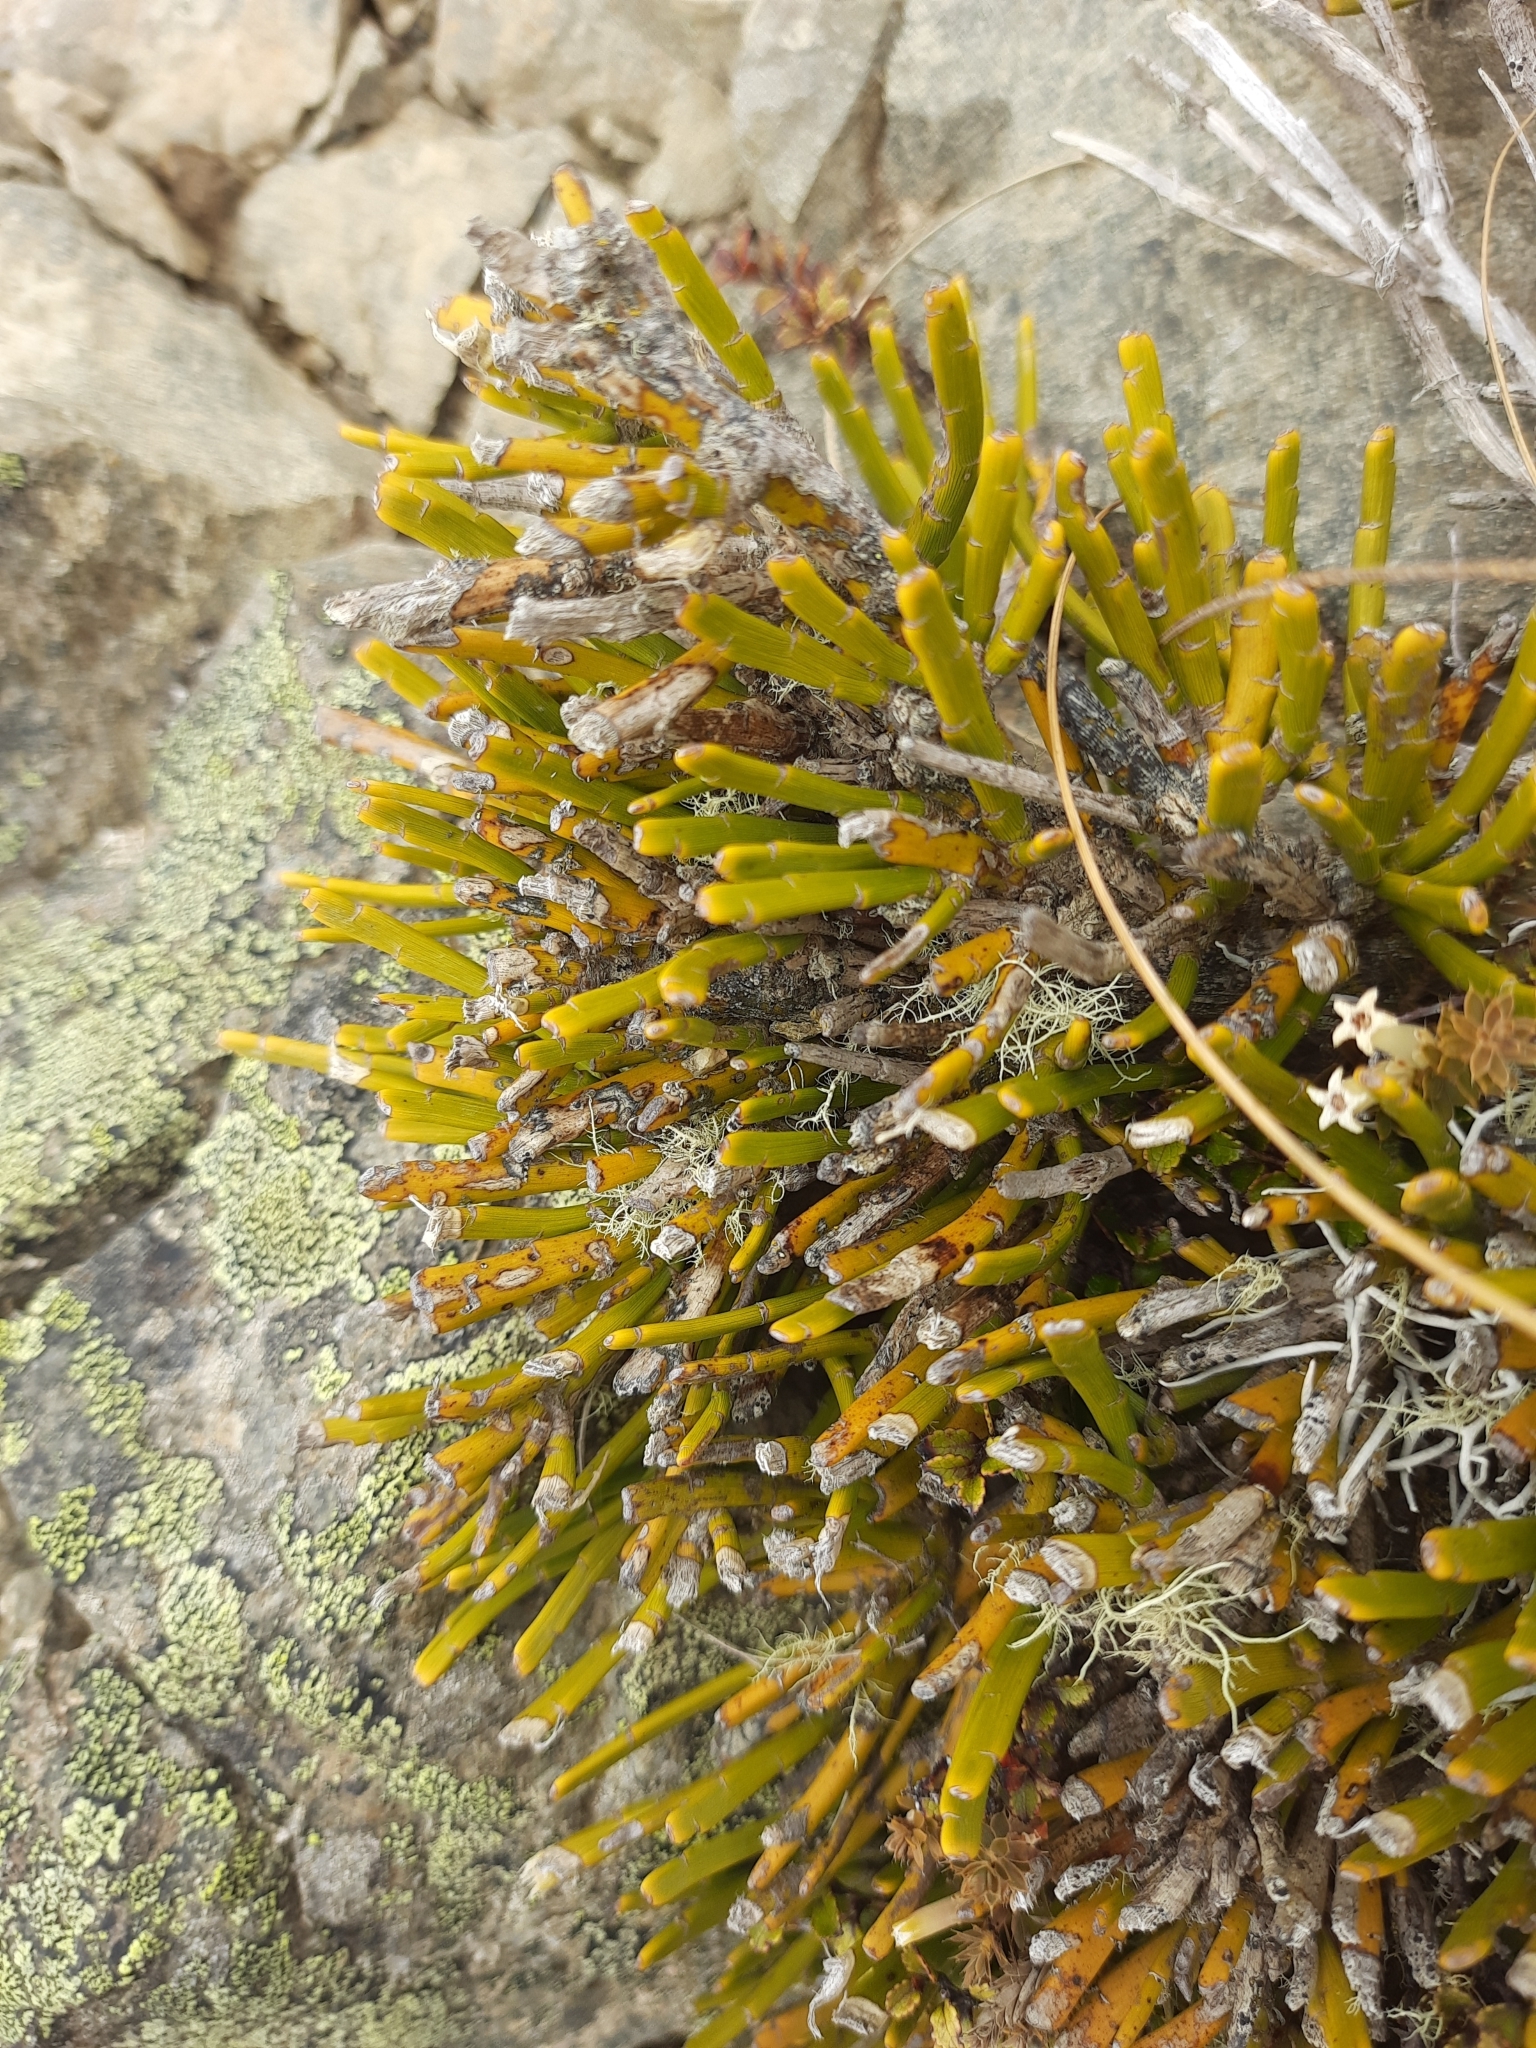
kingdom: Plantae
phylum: Tracheophyta
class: Magnoliopsida
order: Fabales
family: Fabaceae
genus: Carmichaelia
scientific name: Carmichaelia monroi
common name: Stout dwarf broom
